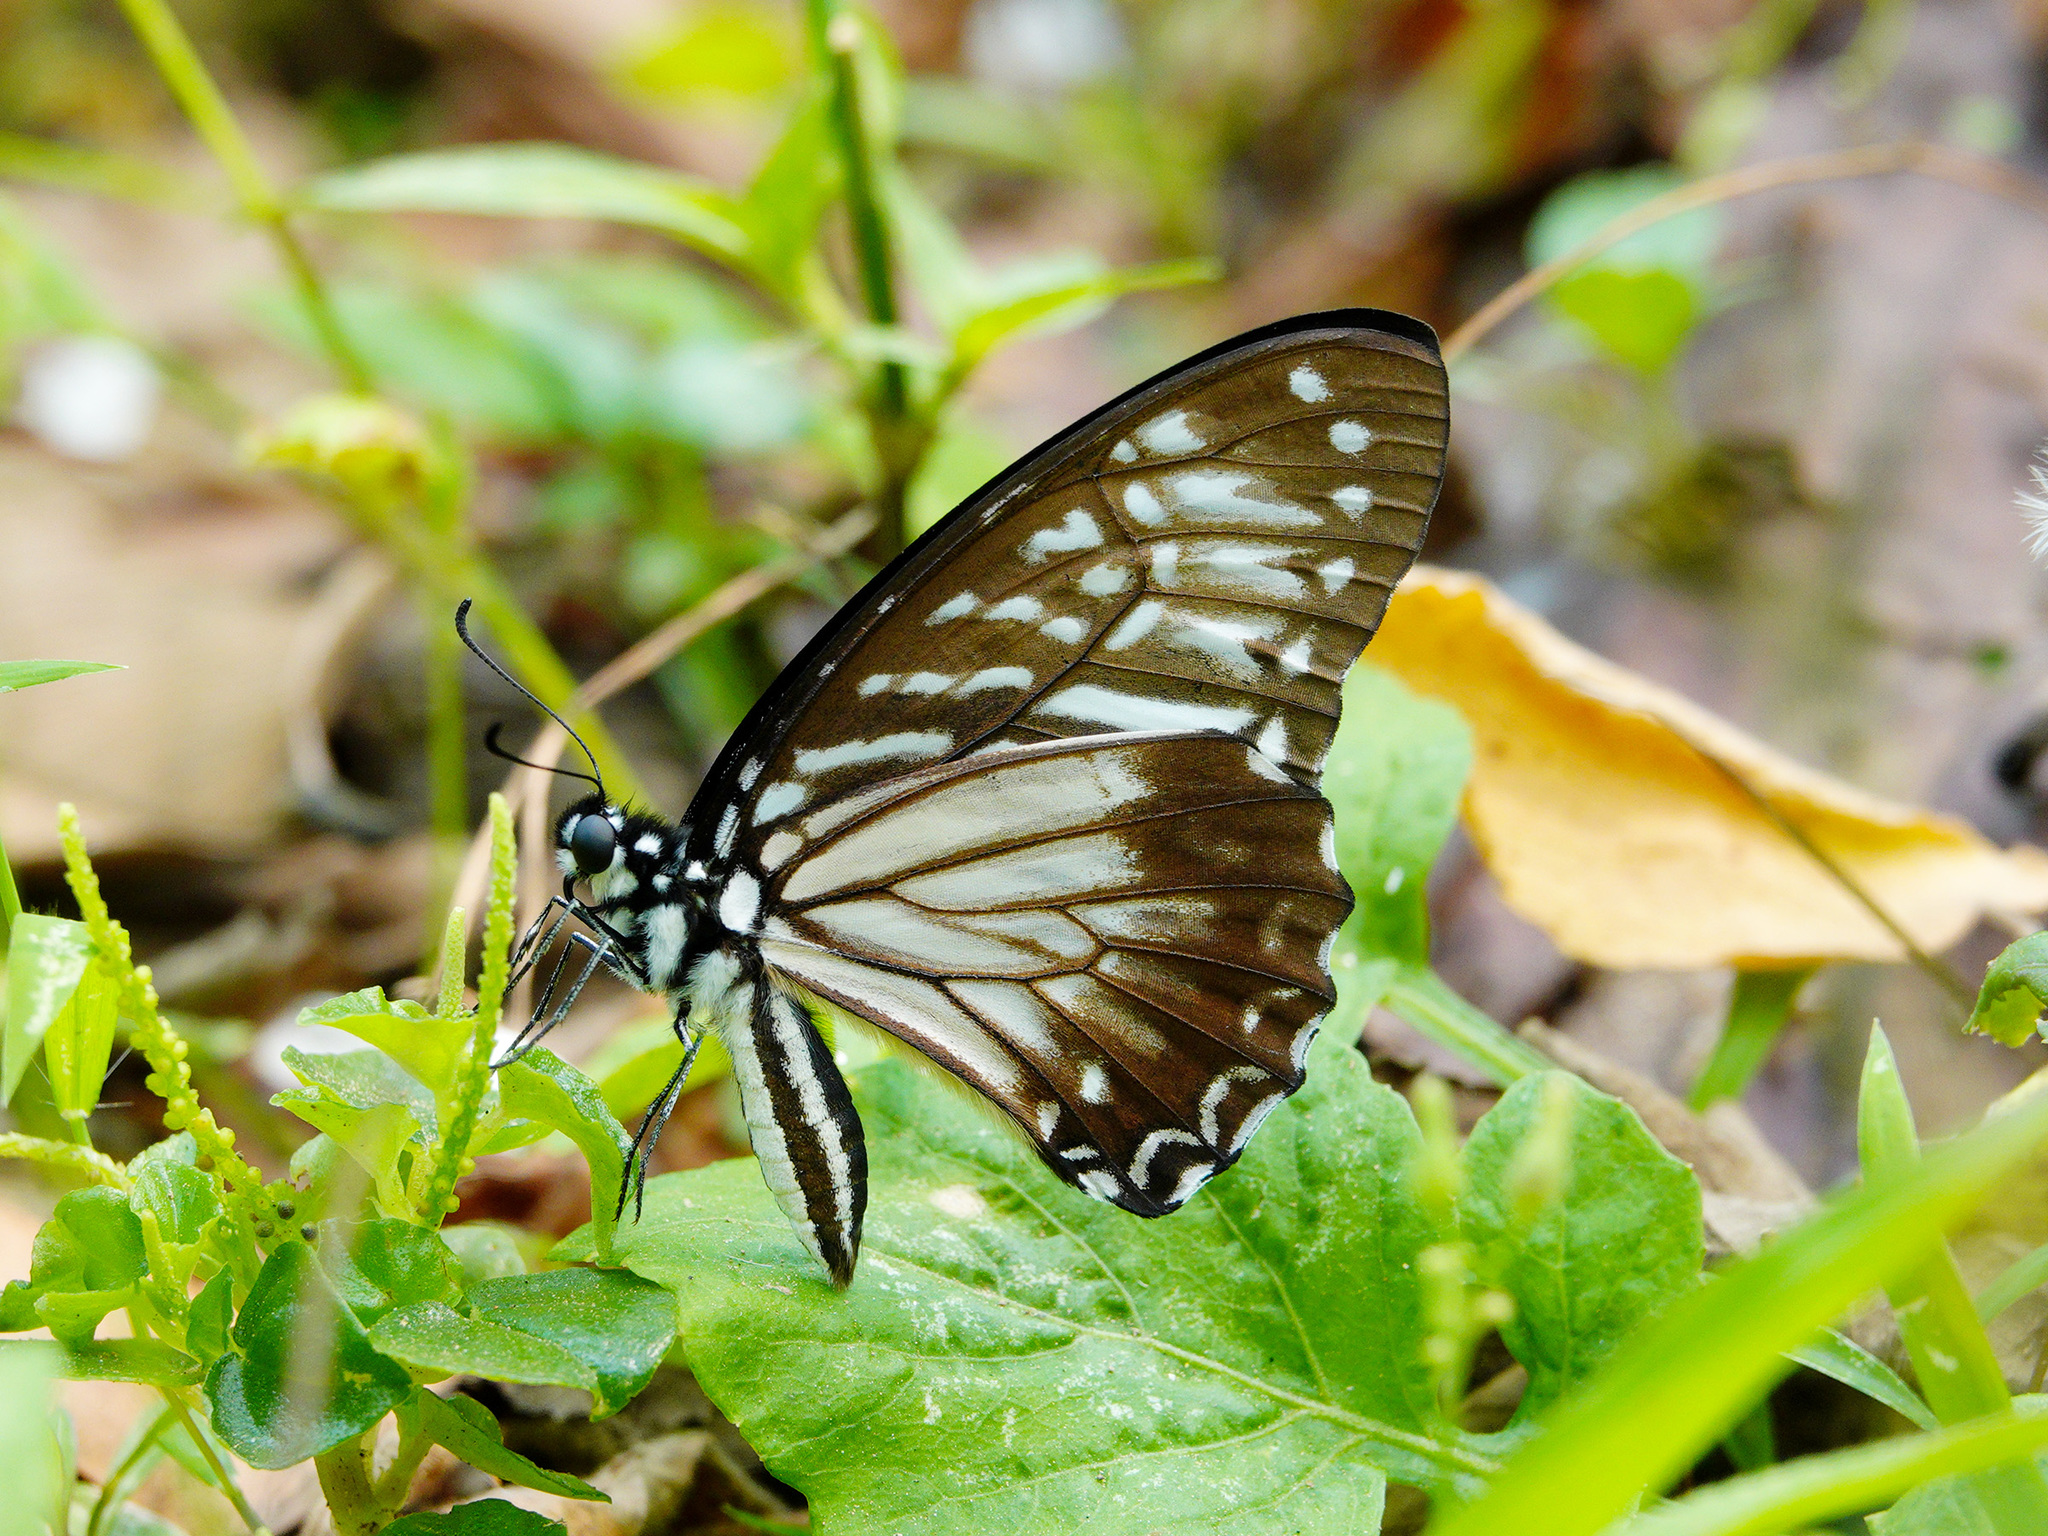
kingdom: Animalia
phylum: Arthropoda
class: Insecta
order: Lepidoptera
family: Papilionidae
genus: Graphium
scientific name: Graphium macareus
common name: Lesser zebra
